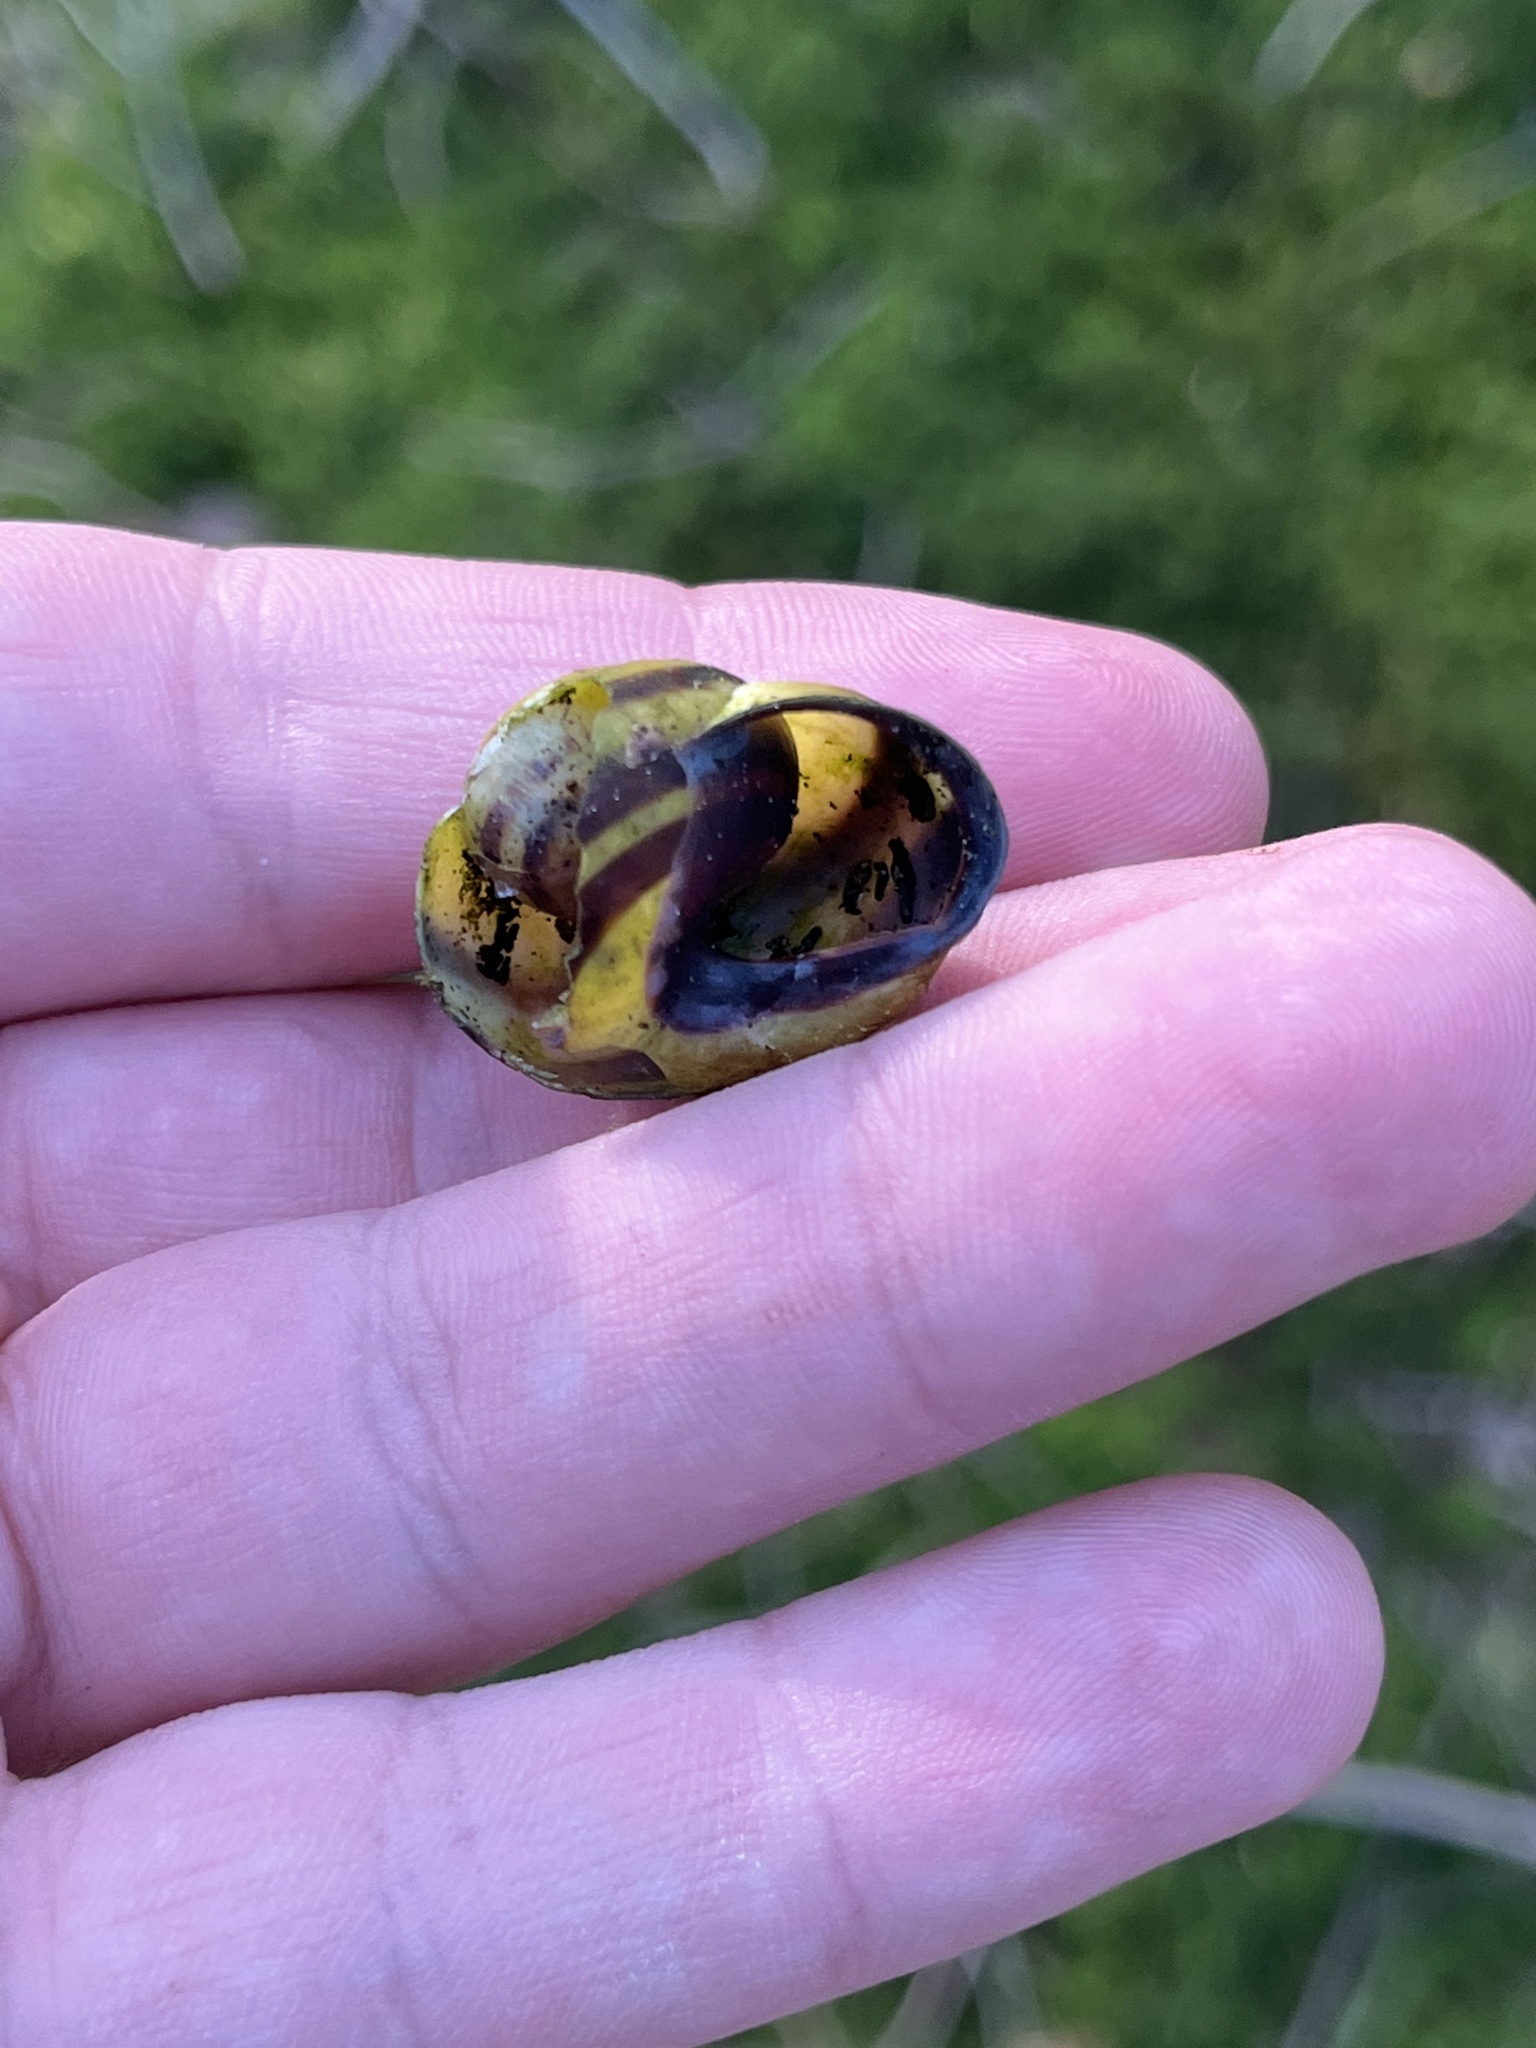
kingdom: Animalia
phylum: Mollusca
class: Gastropoda
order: Stylommatophora
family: Helicidae
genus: Cepaea
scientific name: Cepaea nemoralis
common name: Grovesnail
